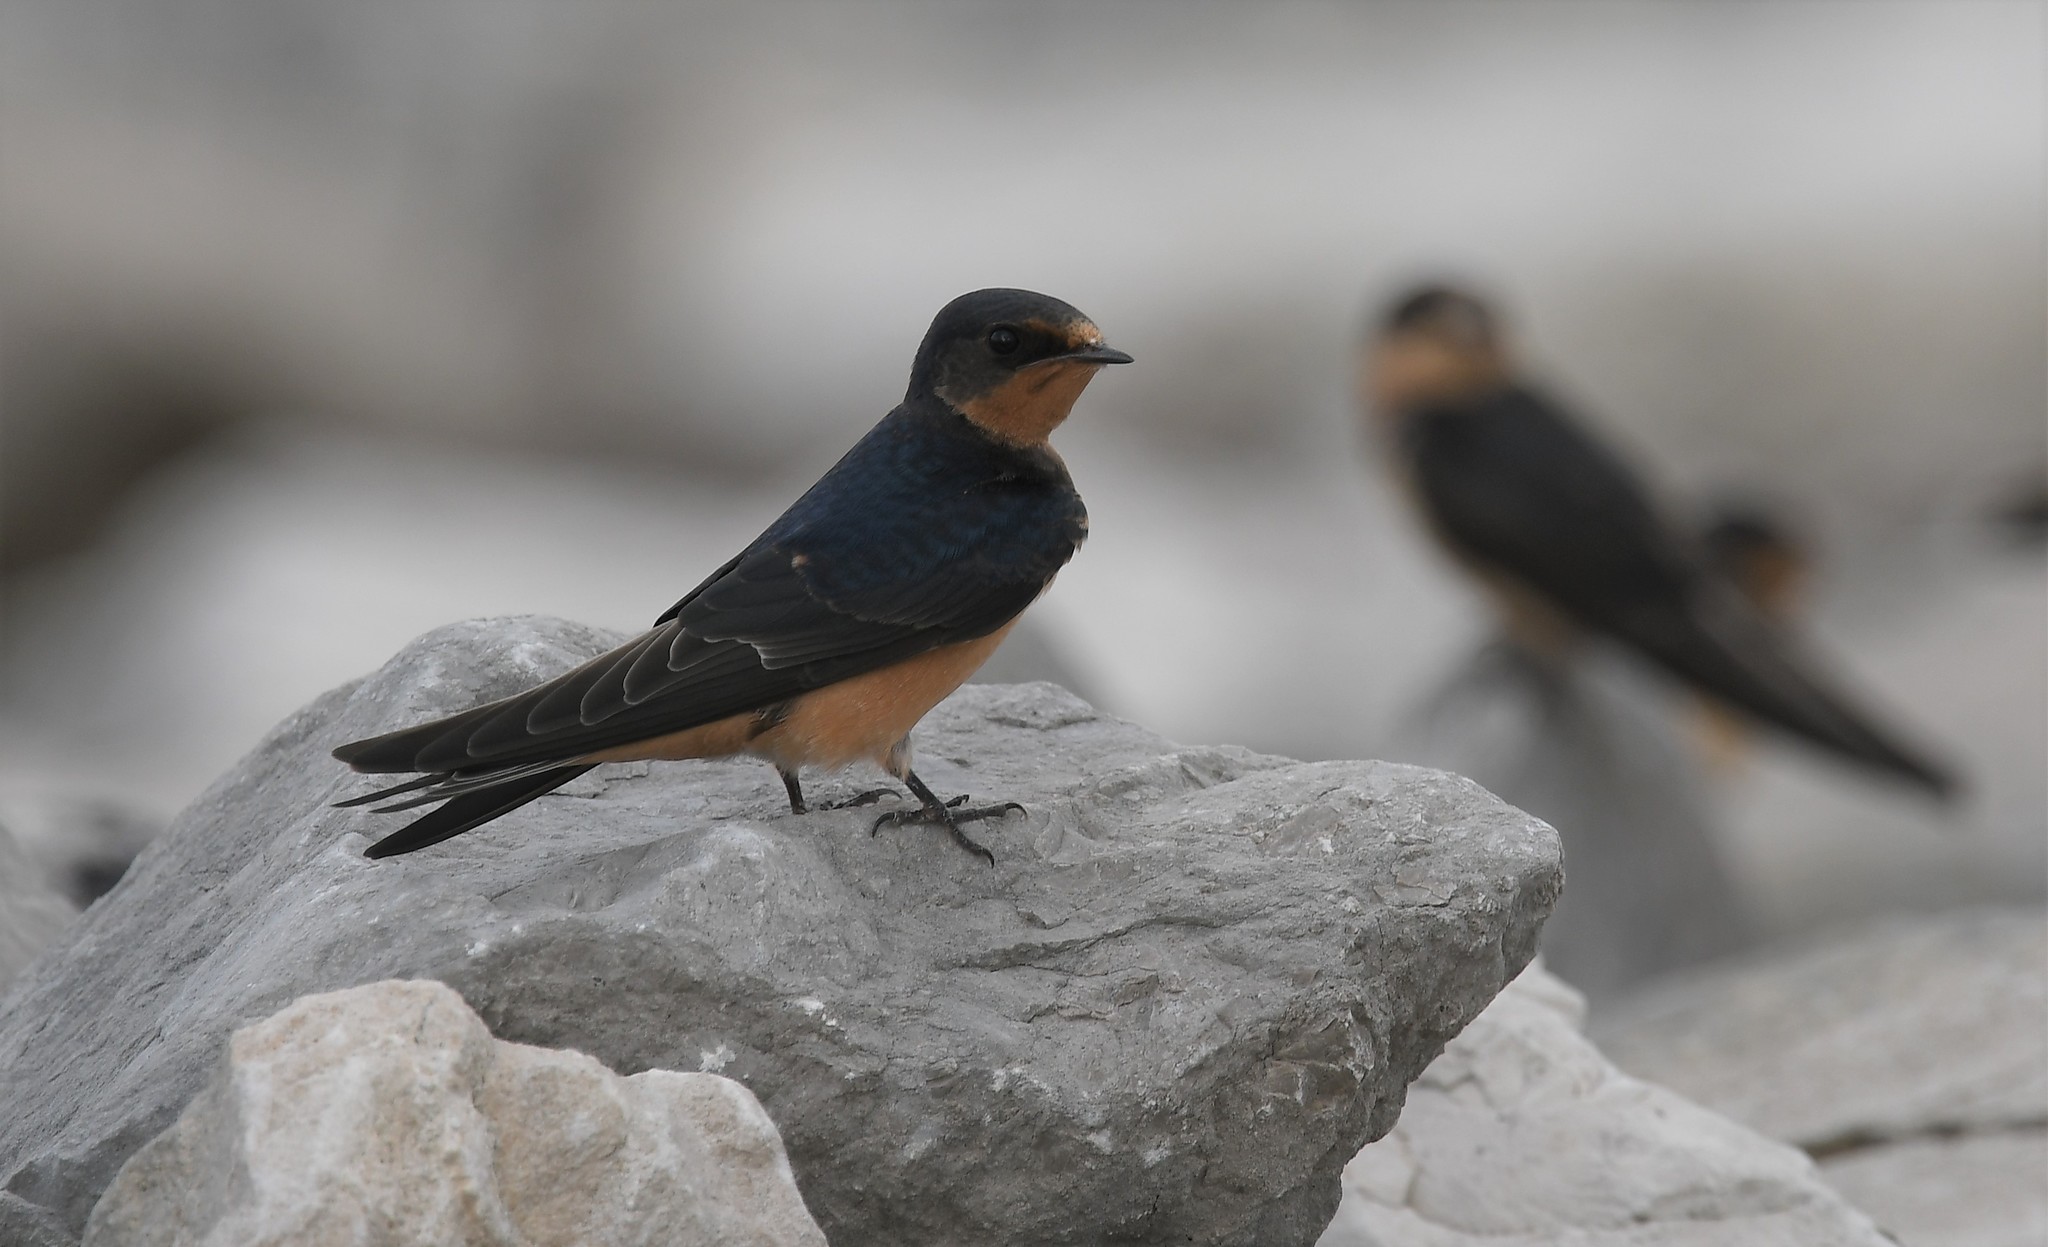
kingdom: Animalia
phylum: Chordata
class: Aves
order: Passeriformes
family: Hirundinidae
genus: Hirundo
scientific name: Hirundo rustica
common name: Barn swallow
